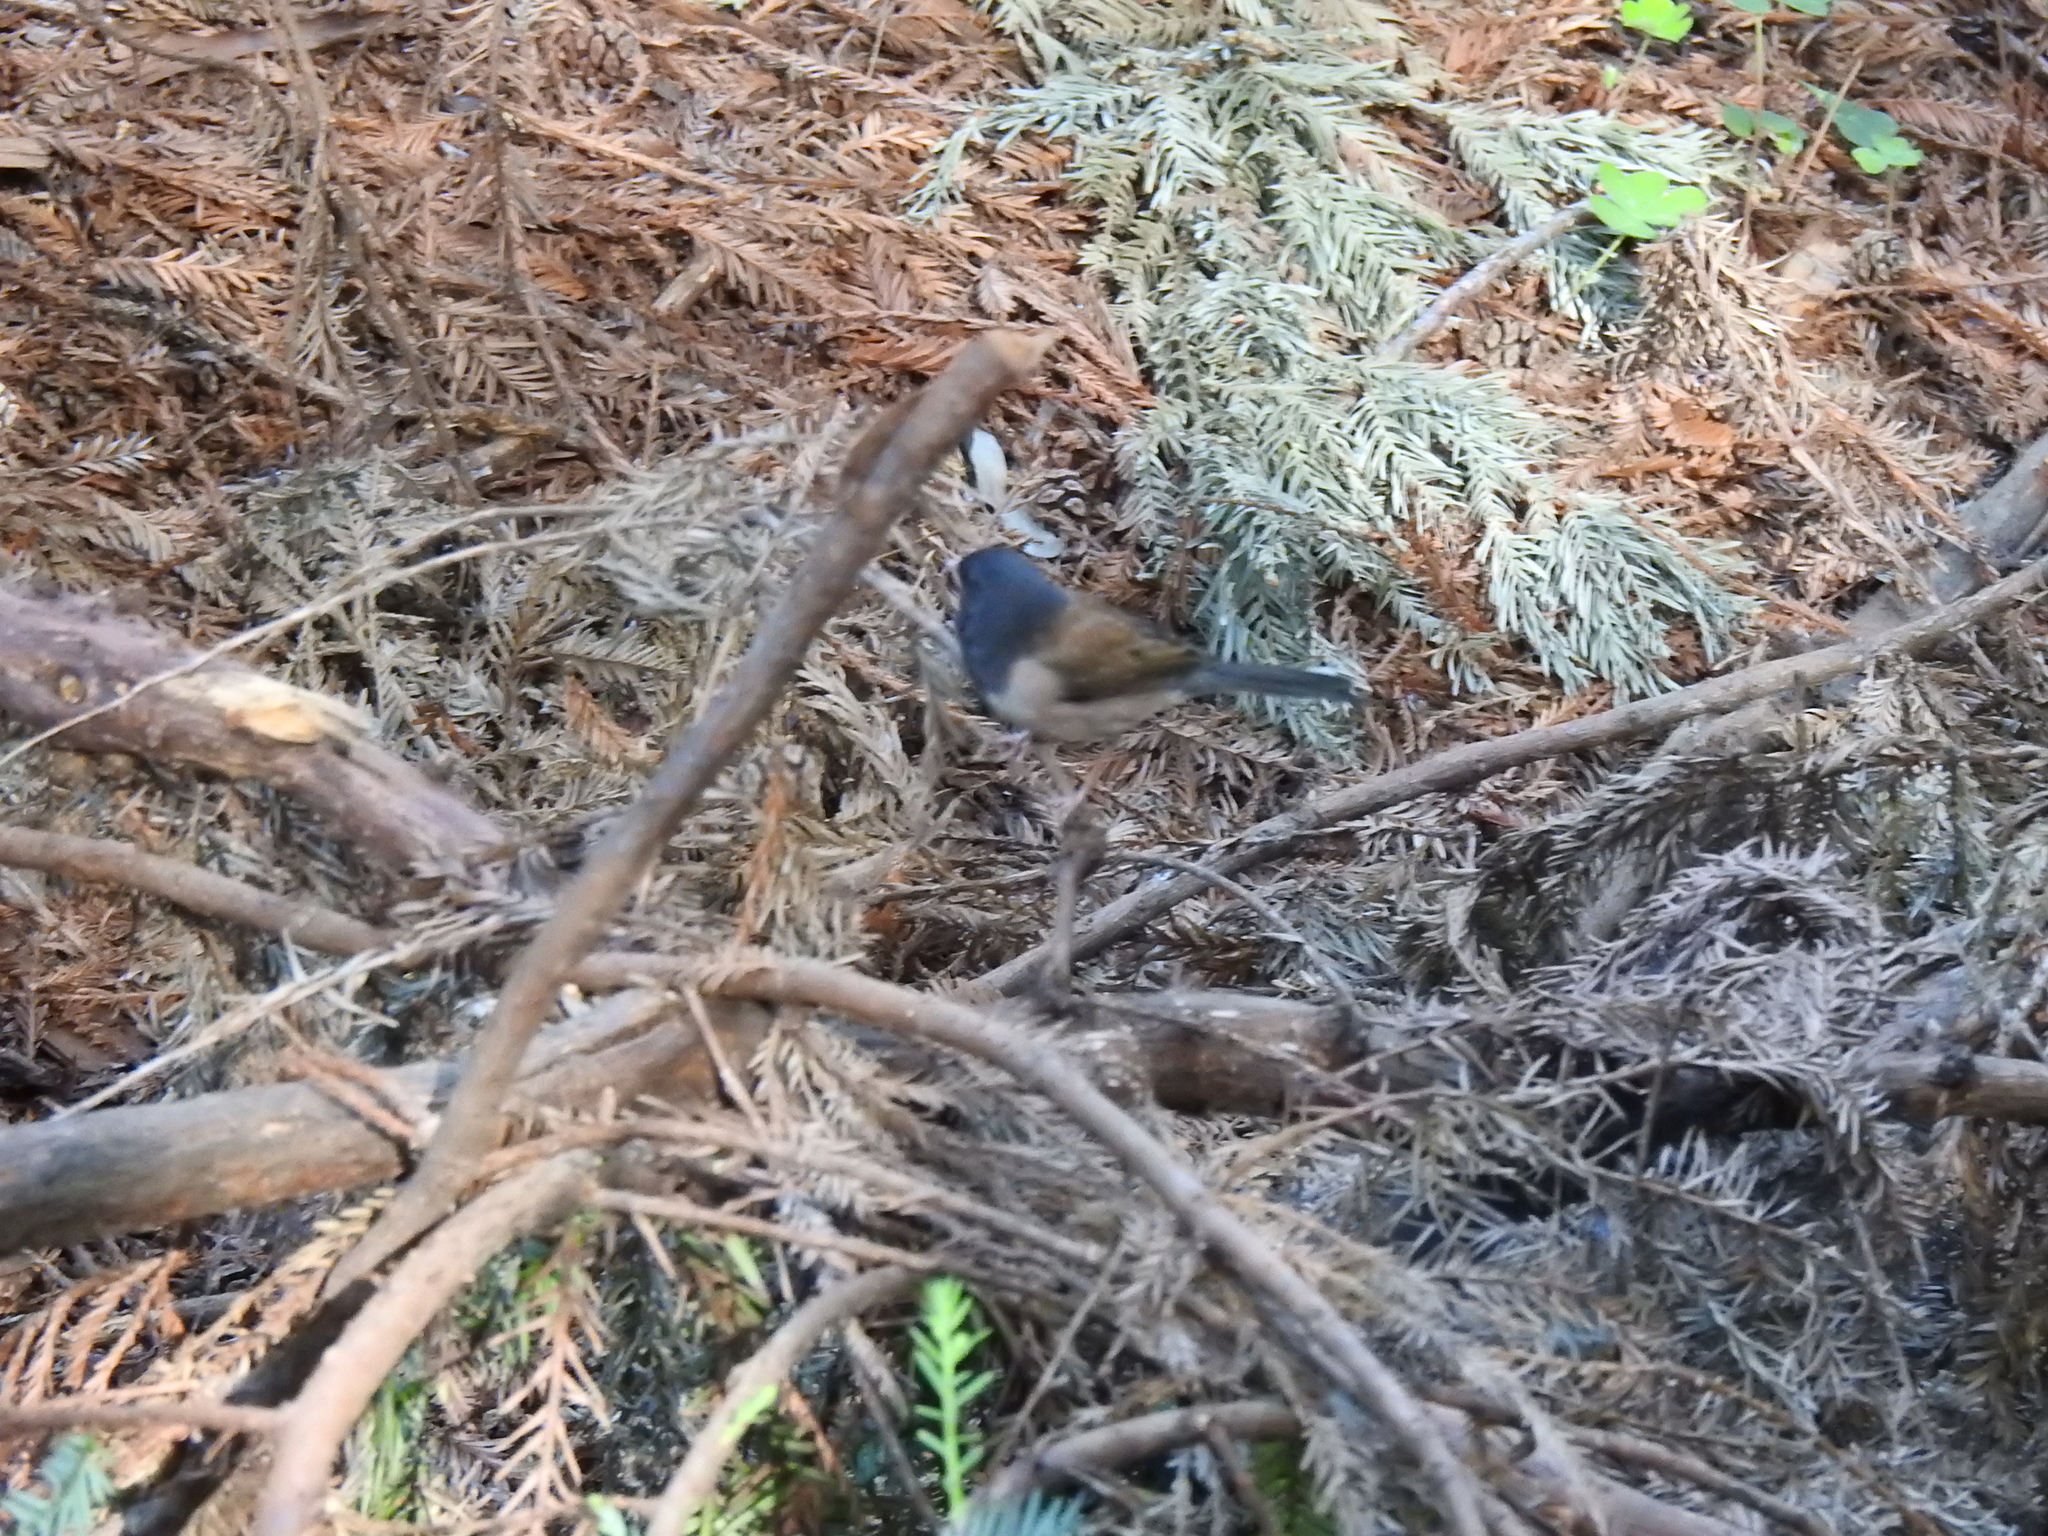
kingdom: Animalia
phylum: Chordata
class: Aves
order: Passeriformes
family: Passerellidae
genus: Junco
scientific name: Junco hyemalis
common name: Dark-eyed junco
